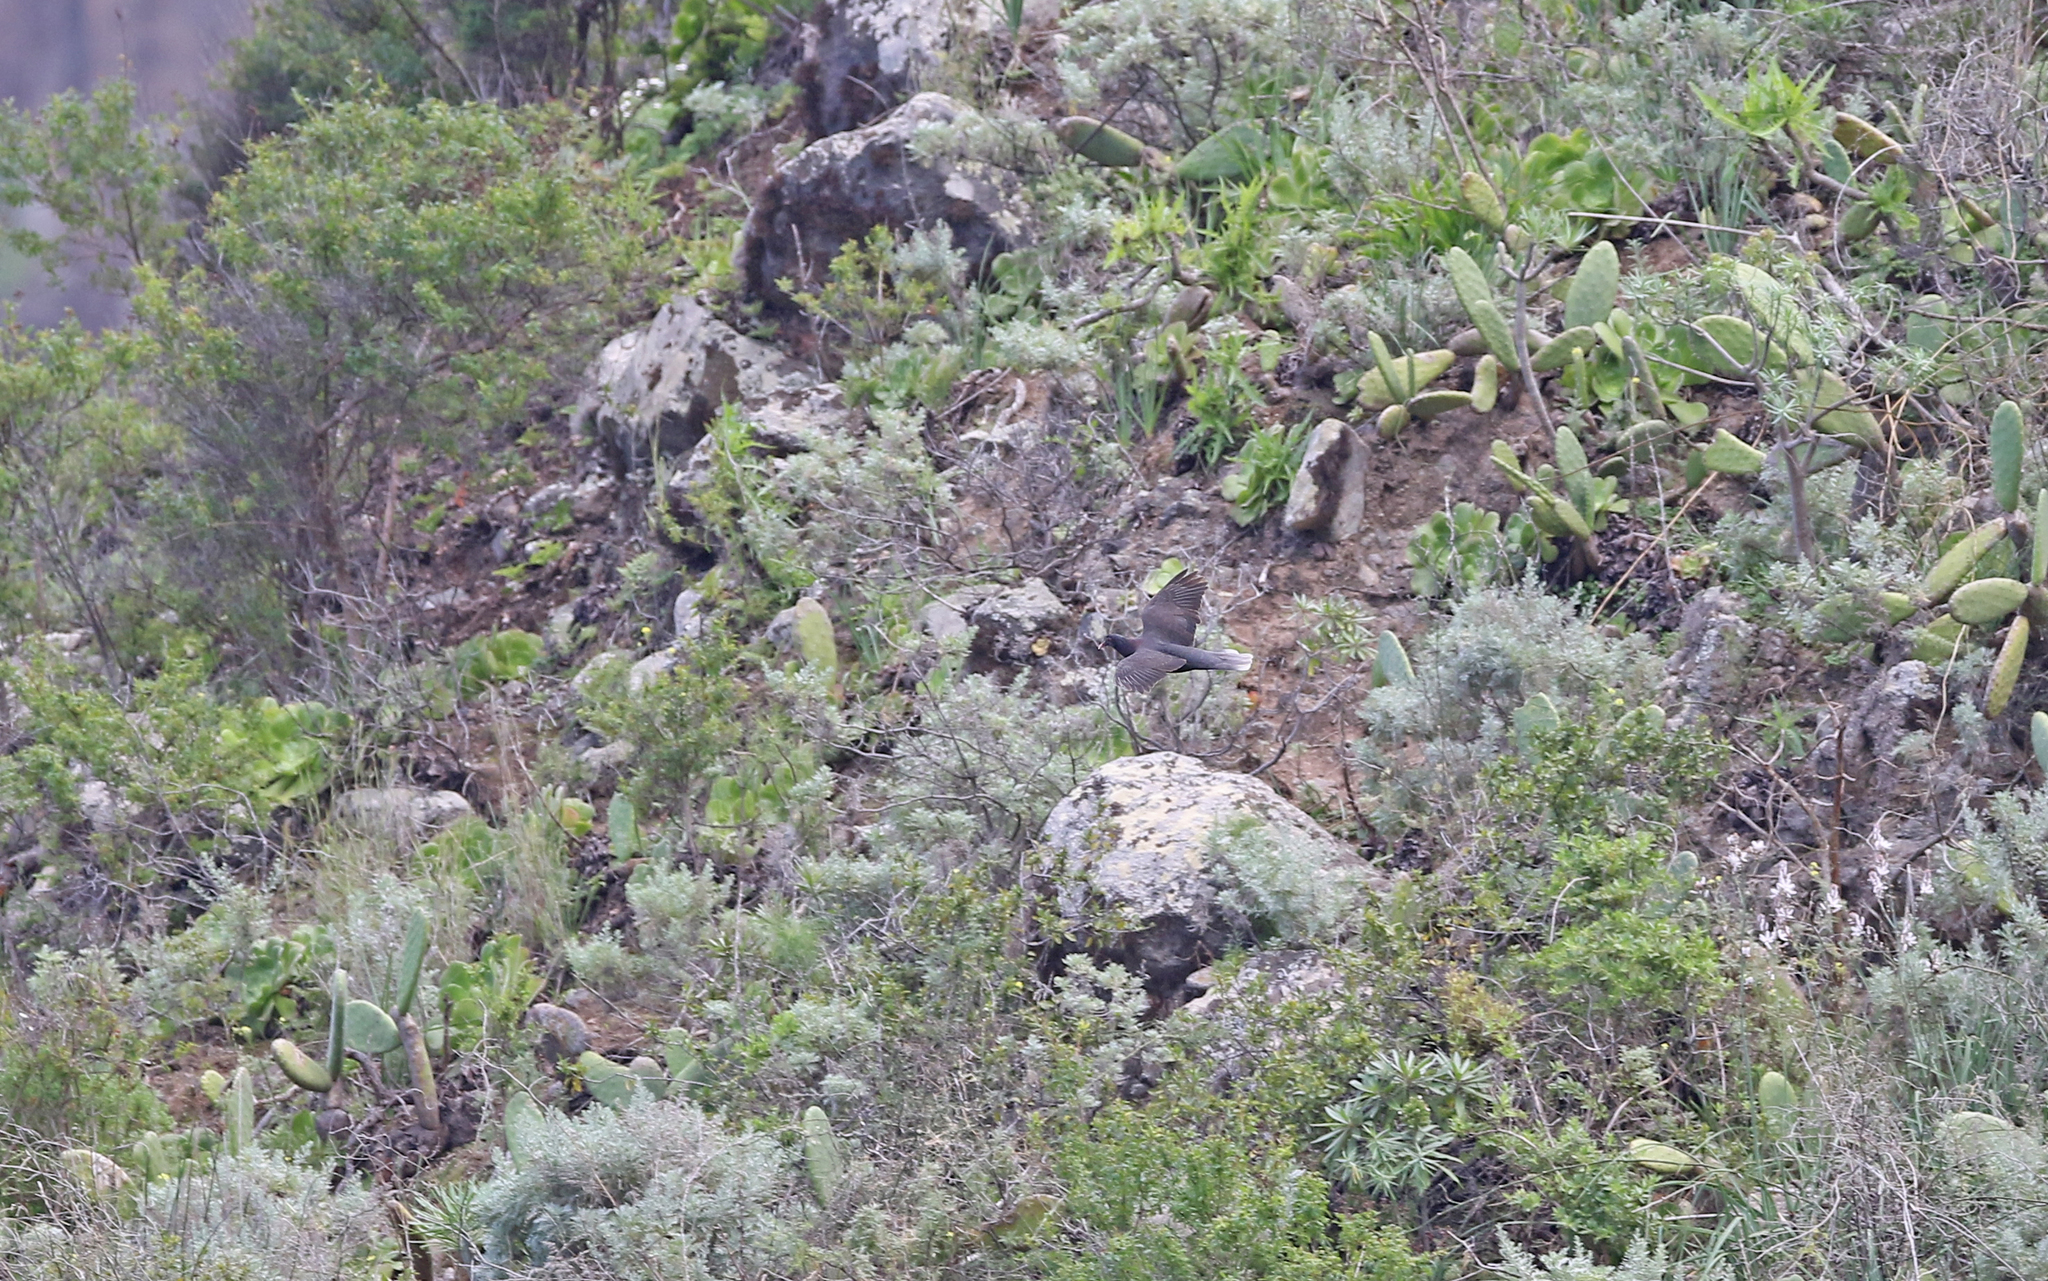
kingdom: Animalia
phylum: Chordata
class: Aves
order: Columbiformes
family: Columbidae
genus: Columba
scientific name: Columba junoniae
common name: Laurel pigeon
